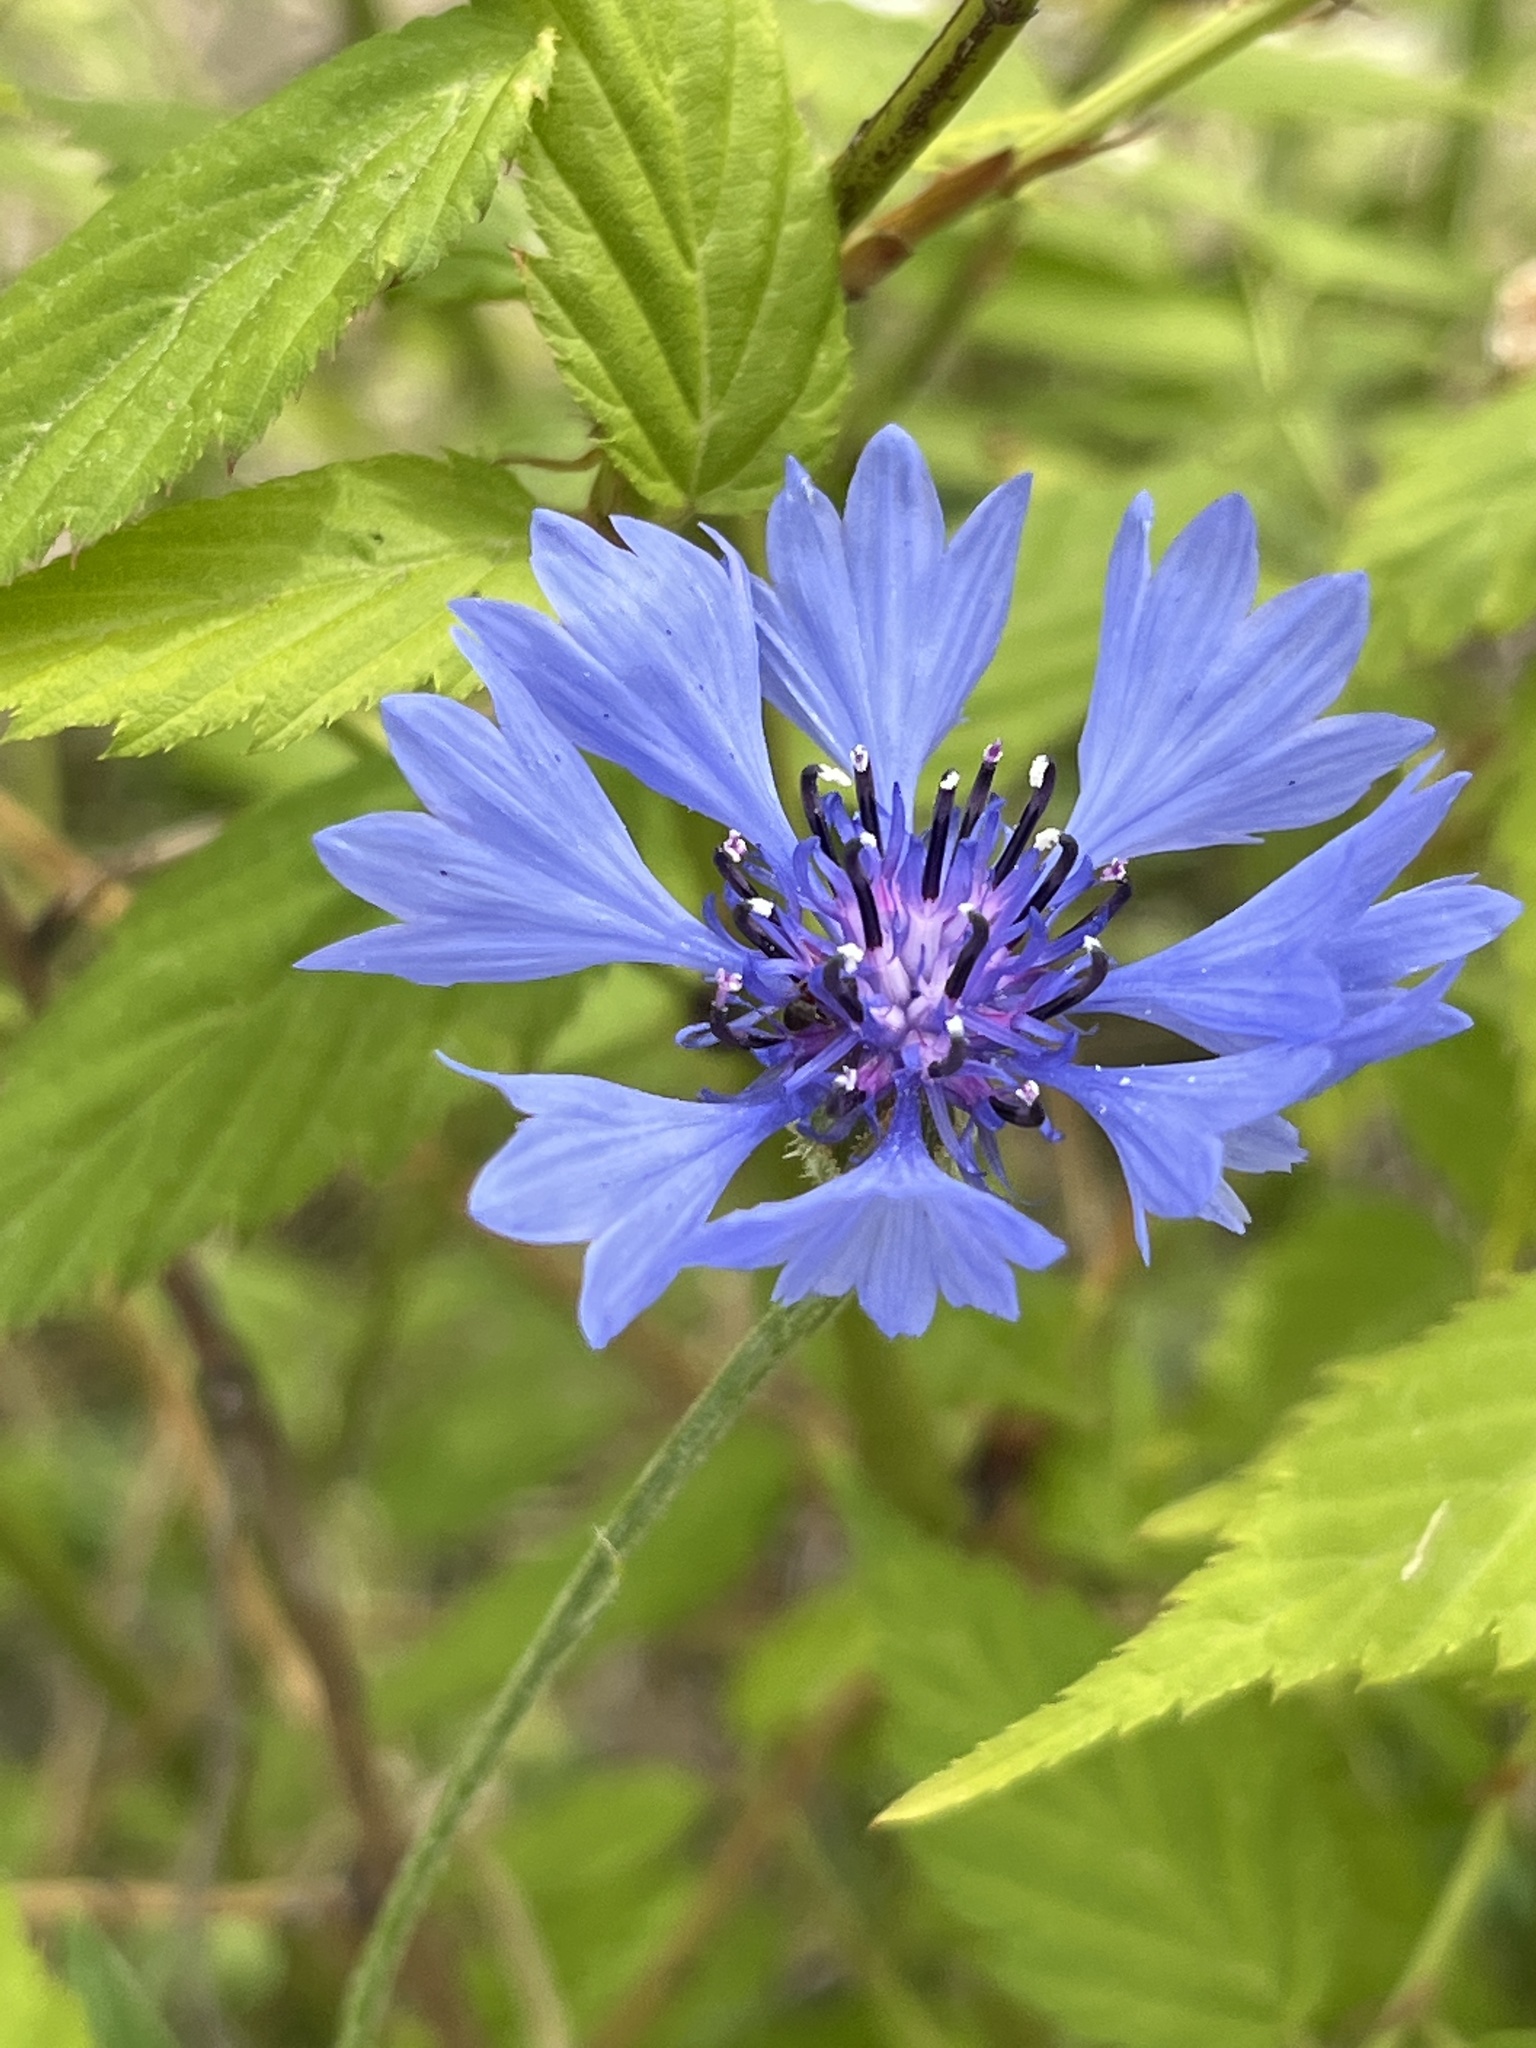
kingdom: Plantae
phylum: Tracheophyta
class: Magnoliopsida
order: Asterales
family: Asteraceae
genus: Centaurea
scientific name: Centaurea cyanus
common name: Cornflower
